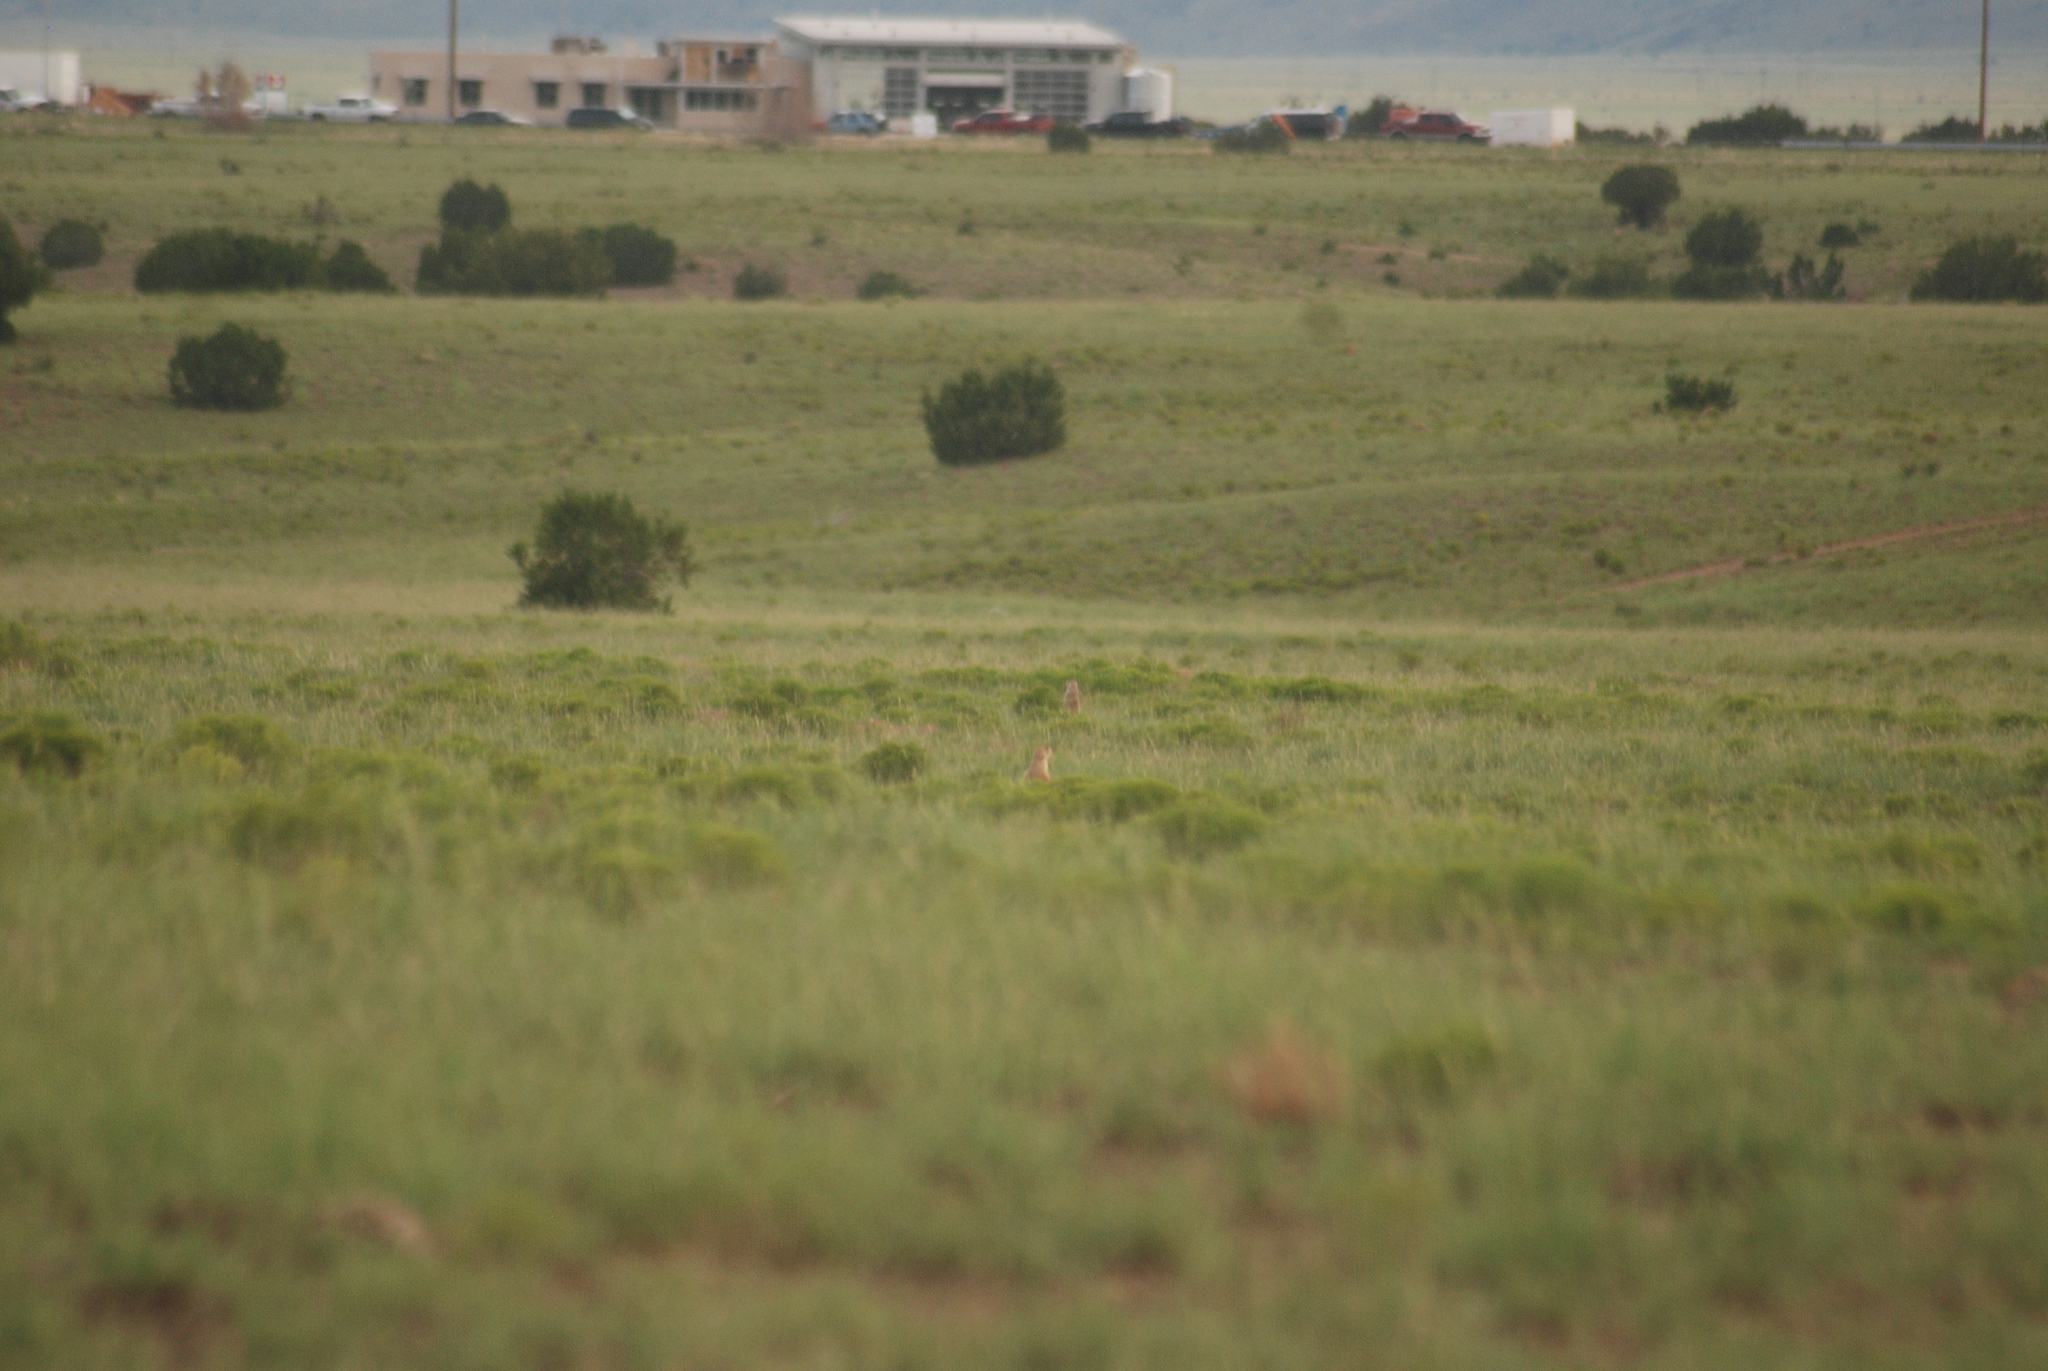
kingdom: Animalia
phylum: Chordata
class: Mammalia
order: Rodentia
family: Sciuridae
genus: Cynomys
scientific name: Cynomys gunnisoni
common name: Gunnison's prairie dog
